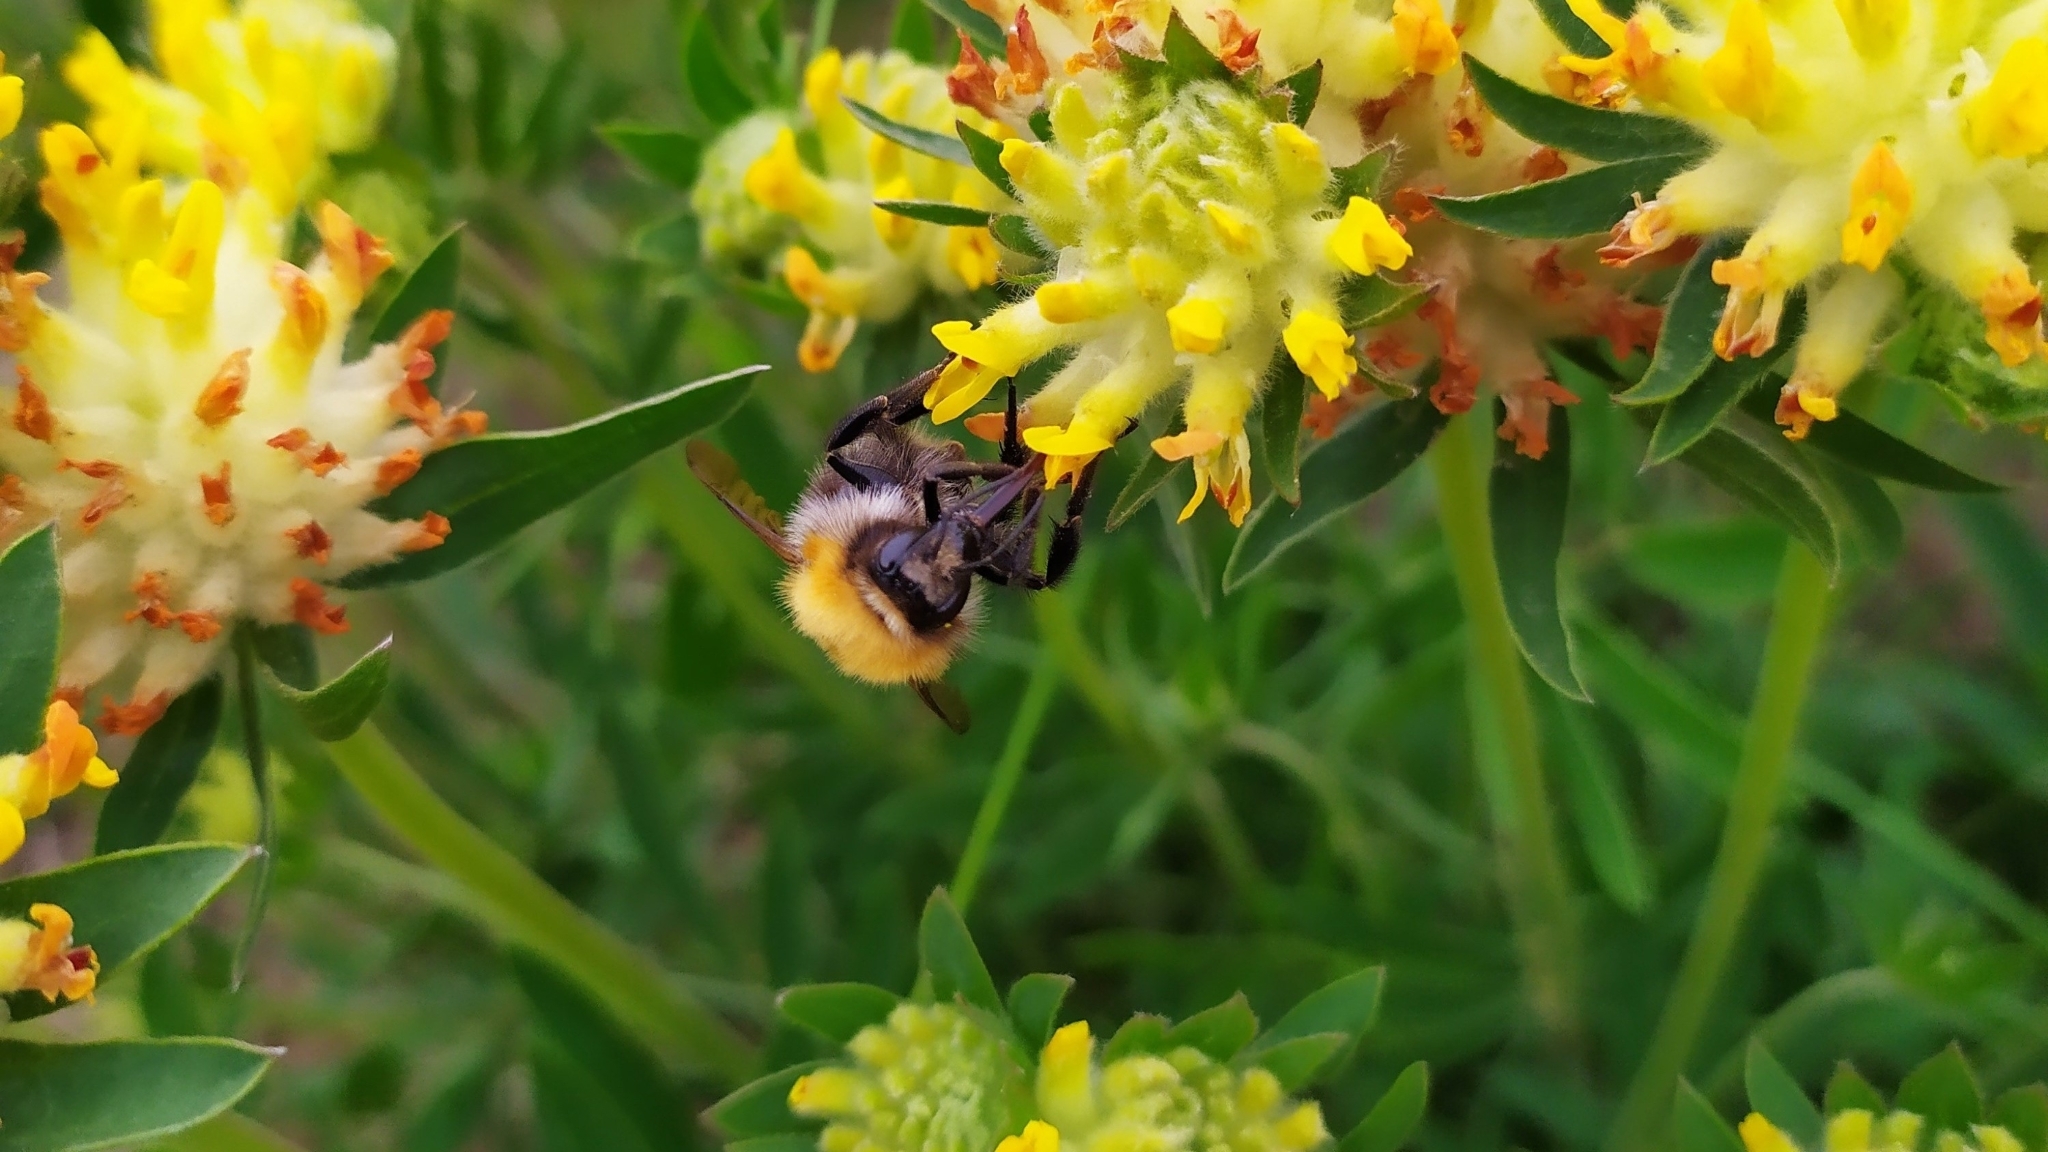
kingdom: Animalia
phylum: Arthropoda
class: Insecta
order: Hymenoptera
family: Apidae
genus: Bombus
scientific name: Bombus pascuorum
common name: Common carder bee
